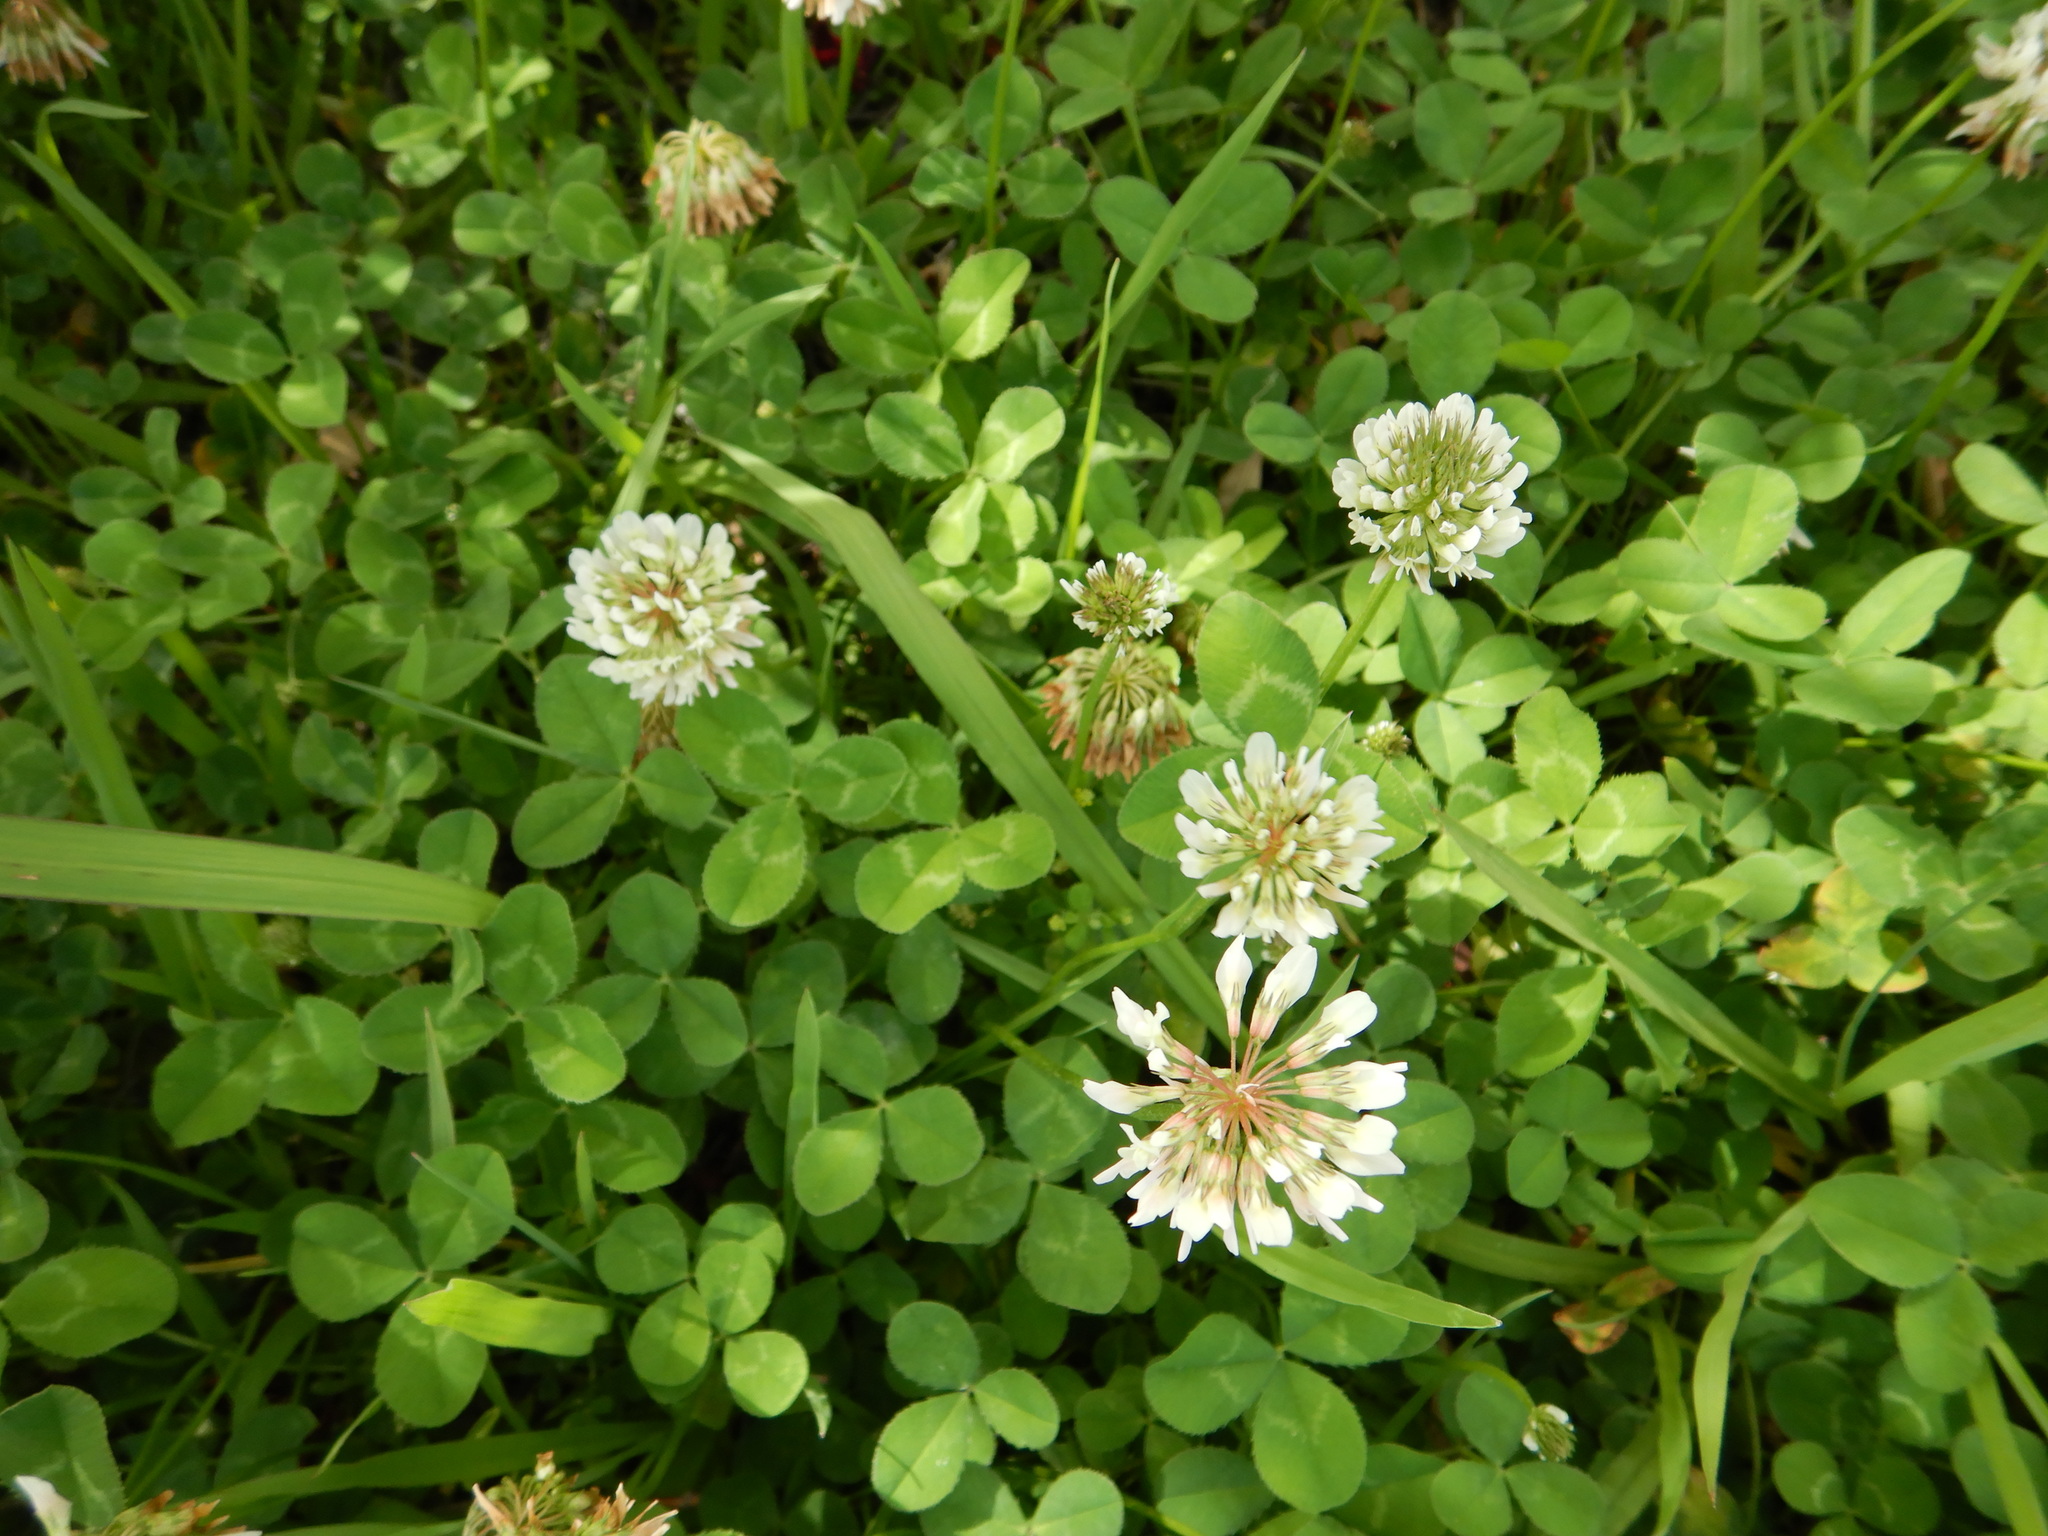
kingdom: Plantae
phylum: Tracheophyta
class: Magnoliopsida
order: Fabales
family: Fabaceae
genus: Trifolium
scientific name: Trifolium repens
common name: White clover
